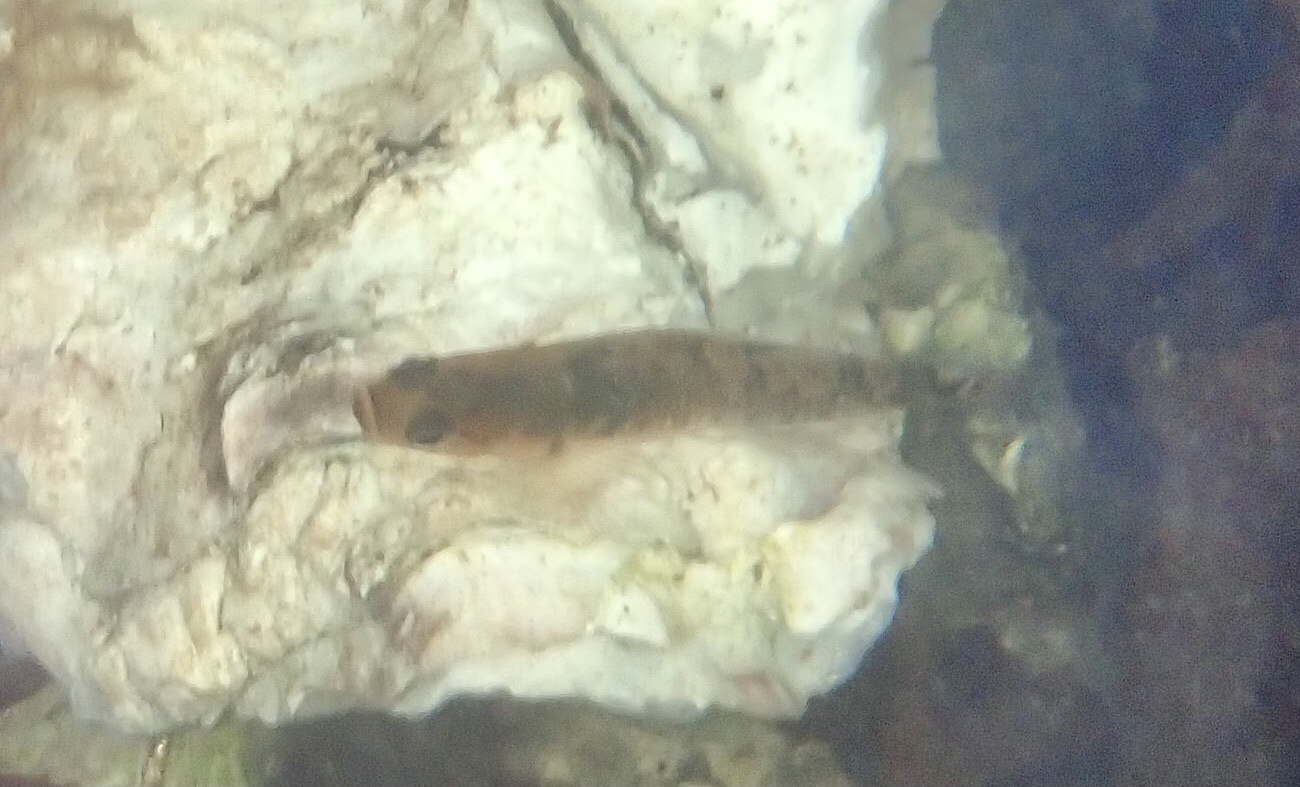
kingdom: Animalia
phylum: Chordata
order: Perciformes
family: Gobiidae
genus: Gobiusculus
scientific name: Gobiusculus flavescens
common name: Two-spotted goby
